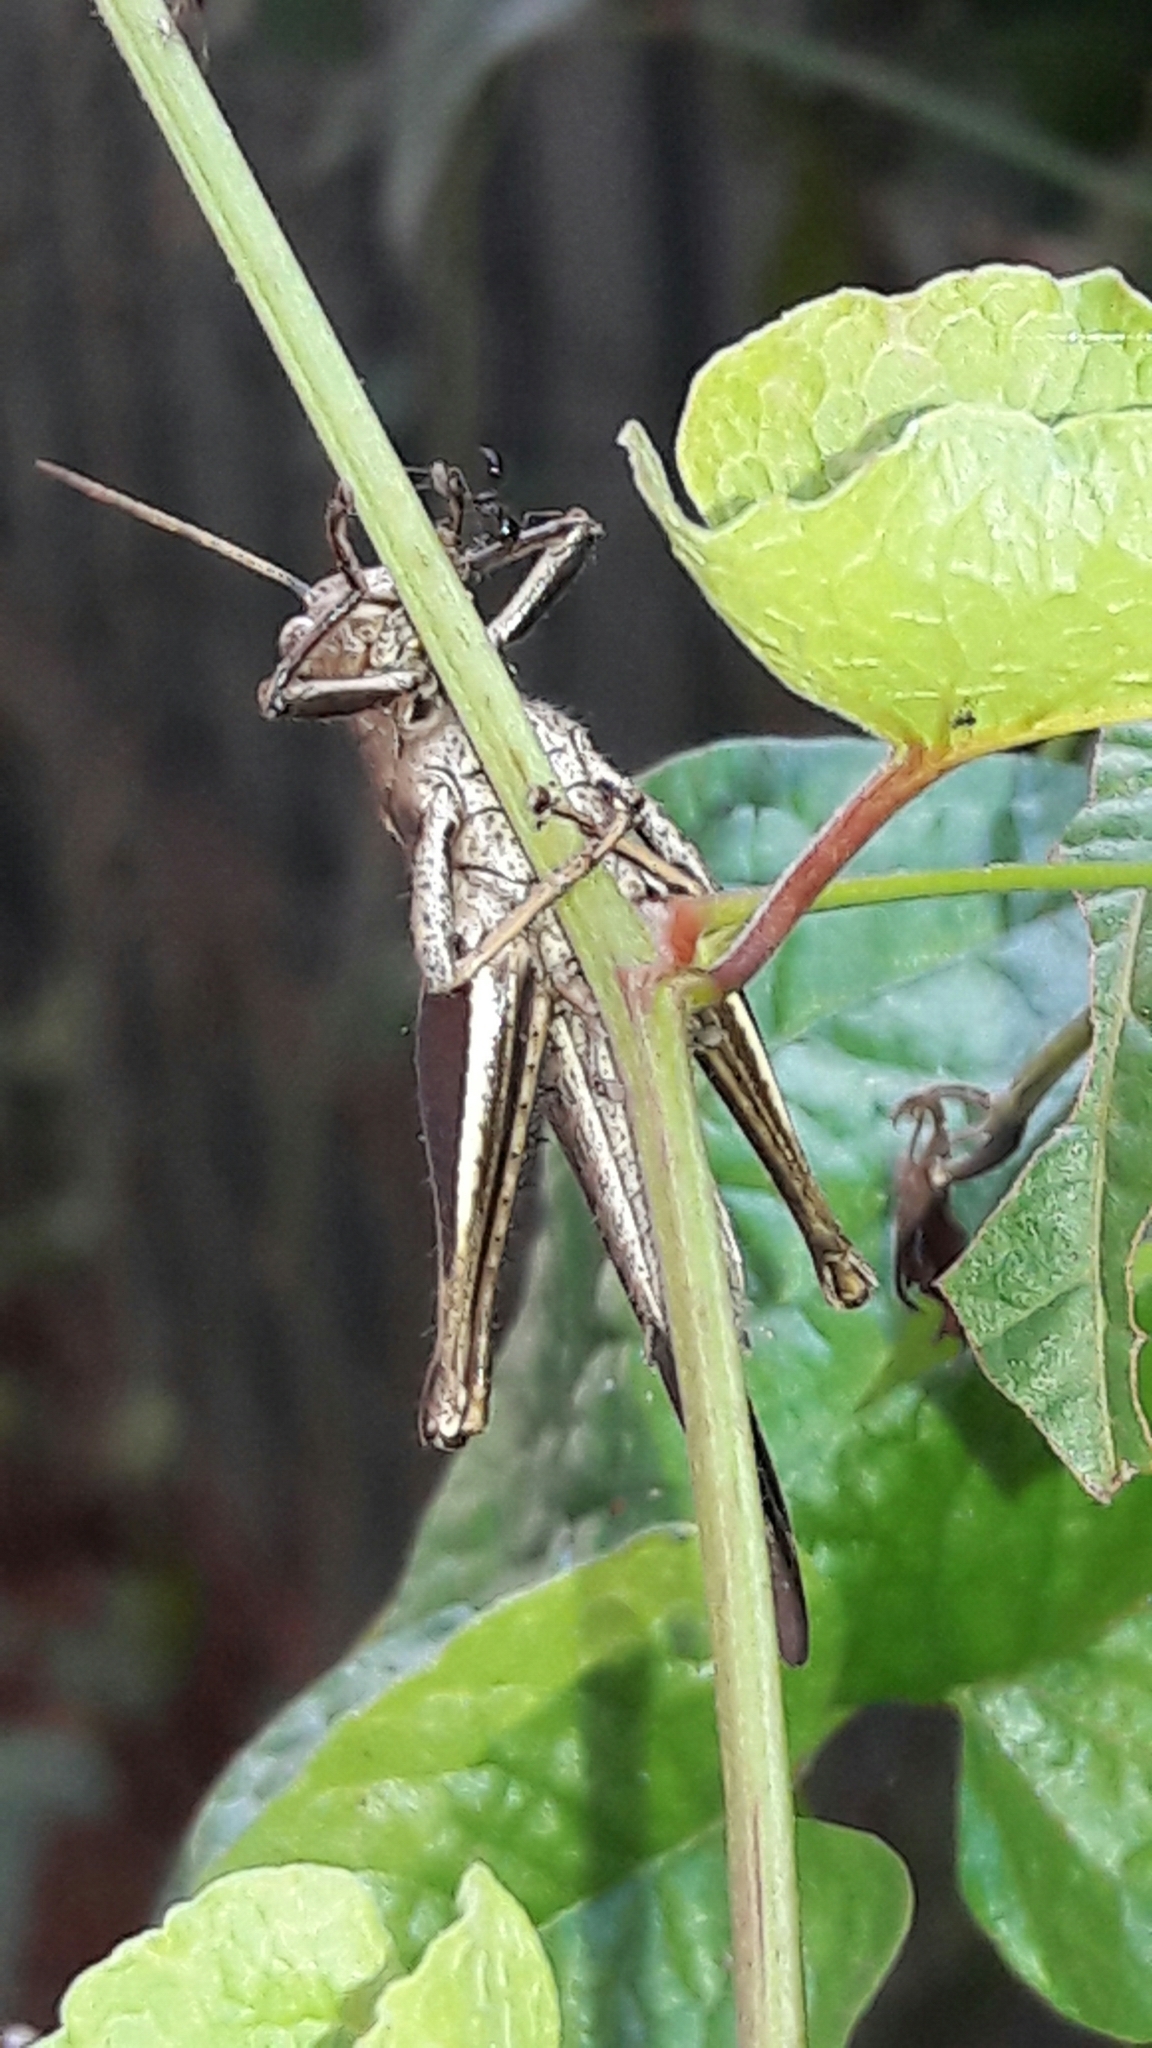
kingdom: Animalia
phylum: Arthropoda
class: Insecta
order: Orthoptera
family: Acrididae
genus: Abracris
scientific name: Abracris flavolineata
